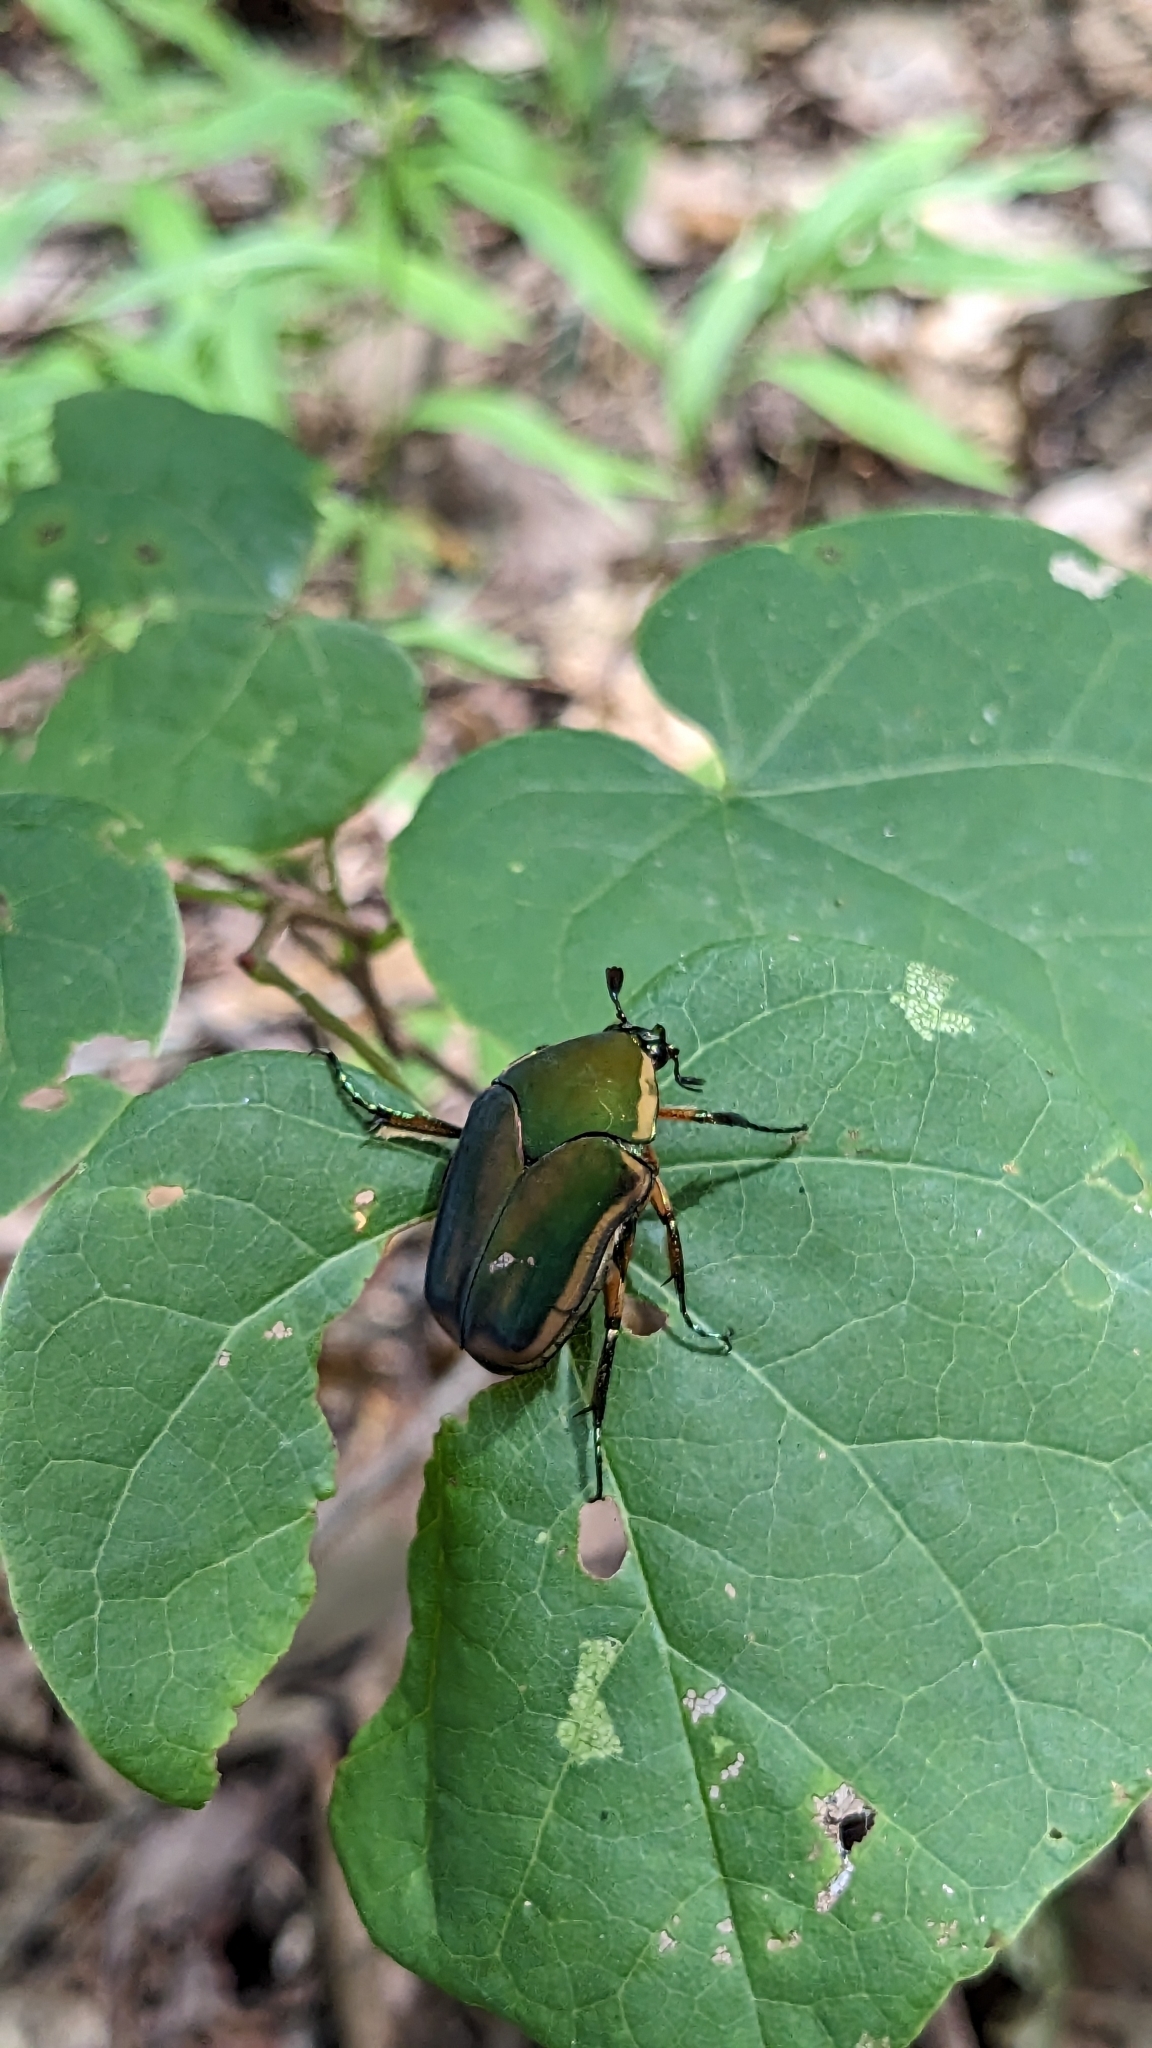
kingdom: Animalia
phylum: Arthropoda
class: Insecta
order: Coleoptera
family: Scarabaeidae
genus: Cotinis
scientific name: Cotinis nitida
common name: Common green june beetle
